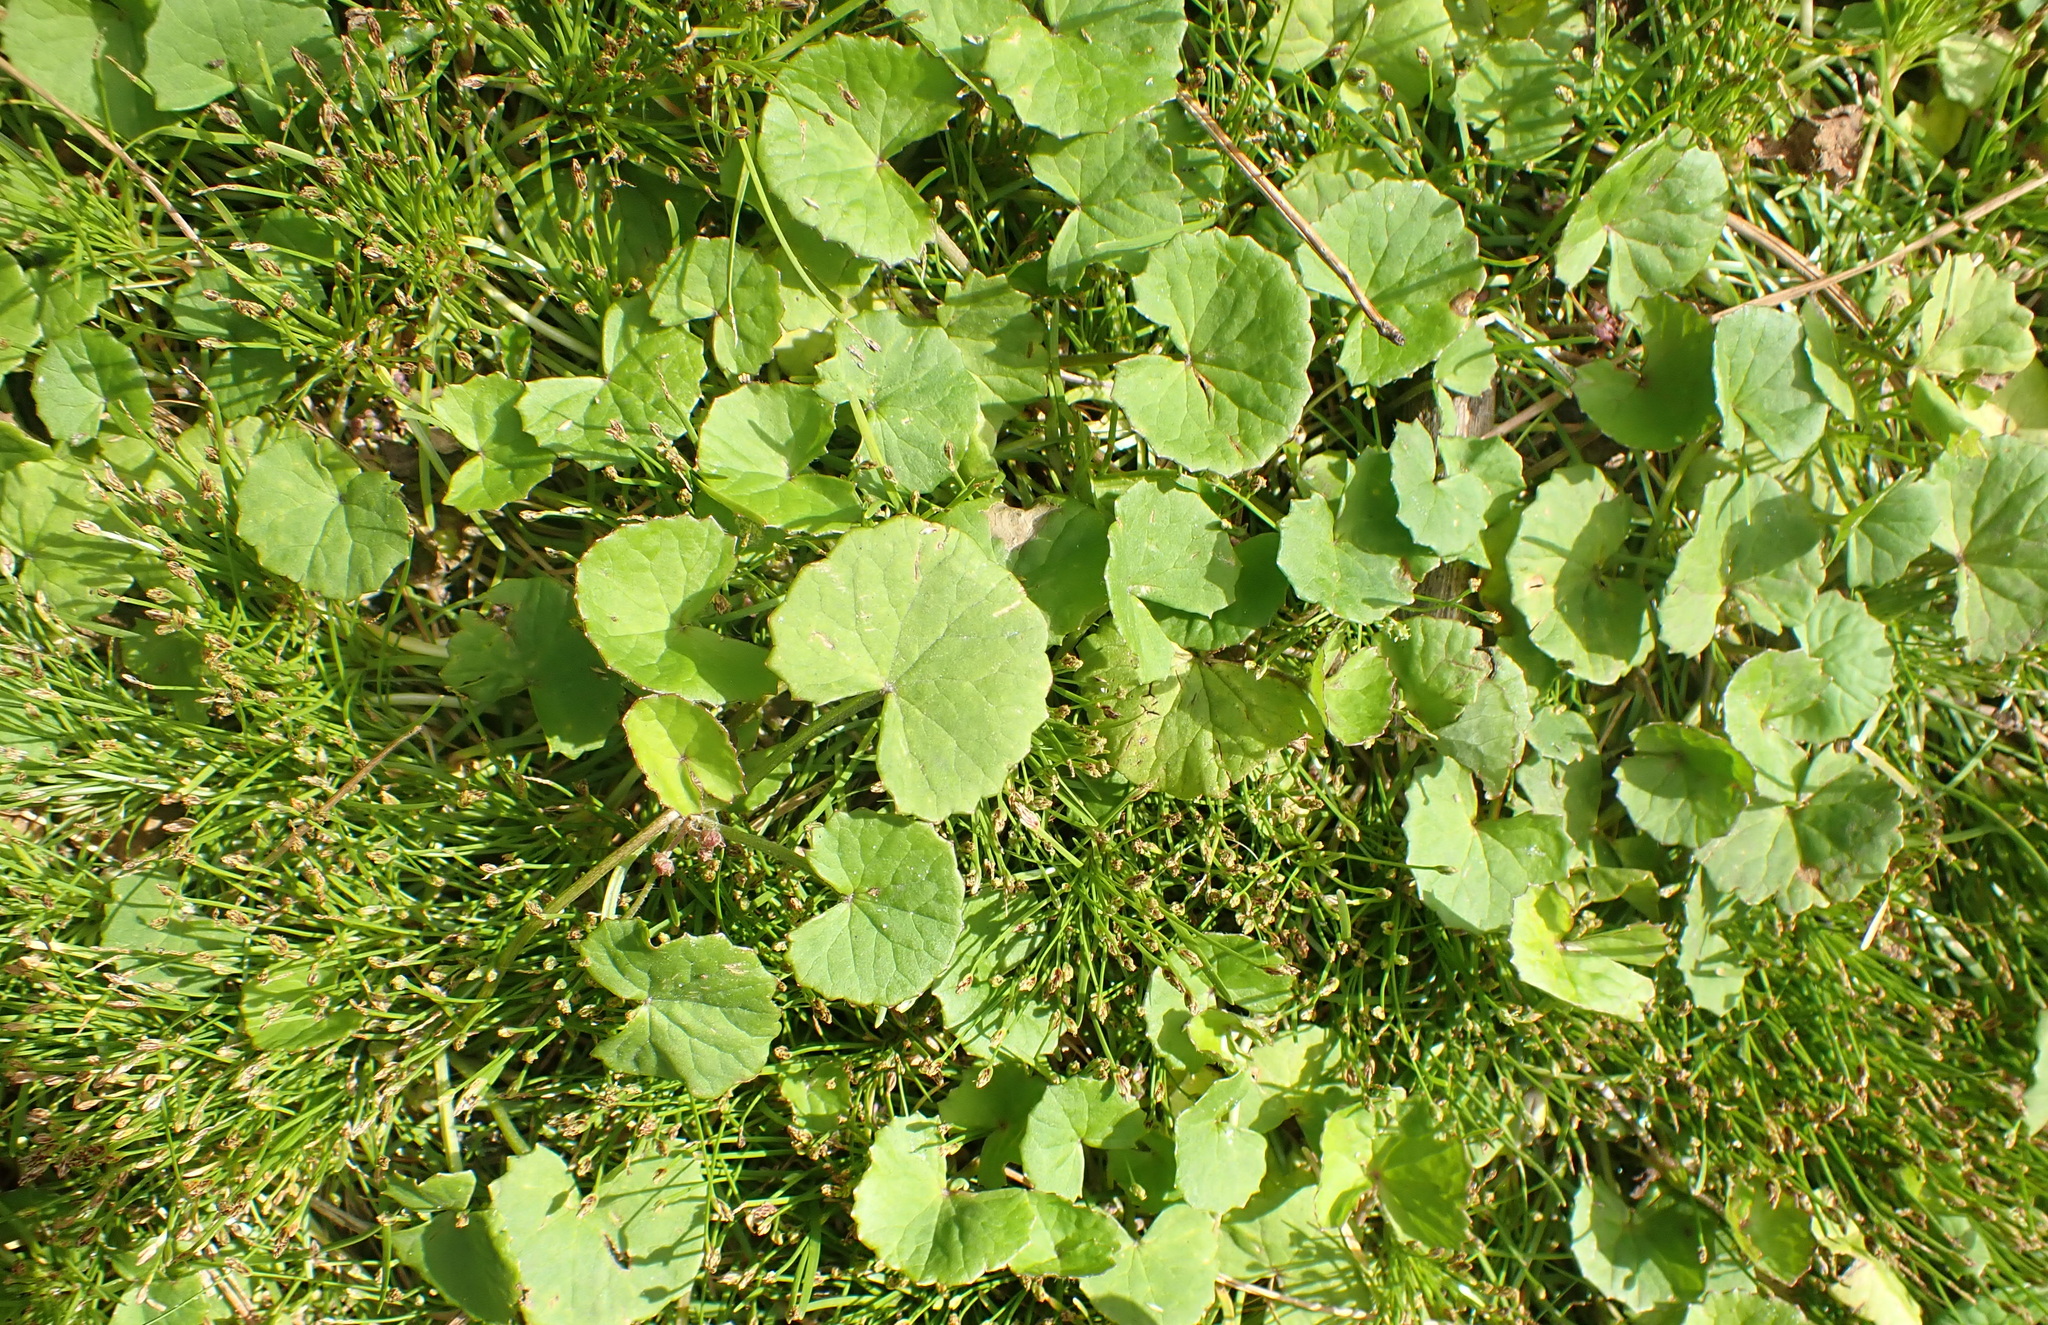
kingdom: Plantae
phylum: Tracheophyta
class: Magnoliopsida
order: Apiales
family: Apiaceae
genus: Centella
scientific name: Centella asiatica
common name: Spadeleaf
